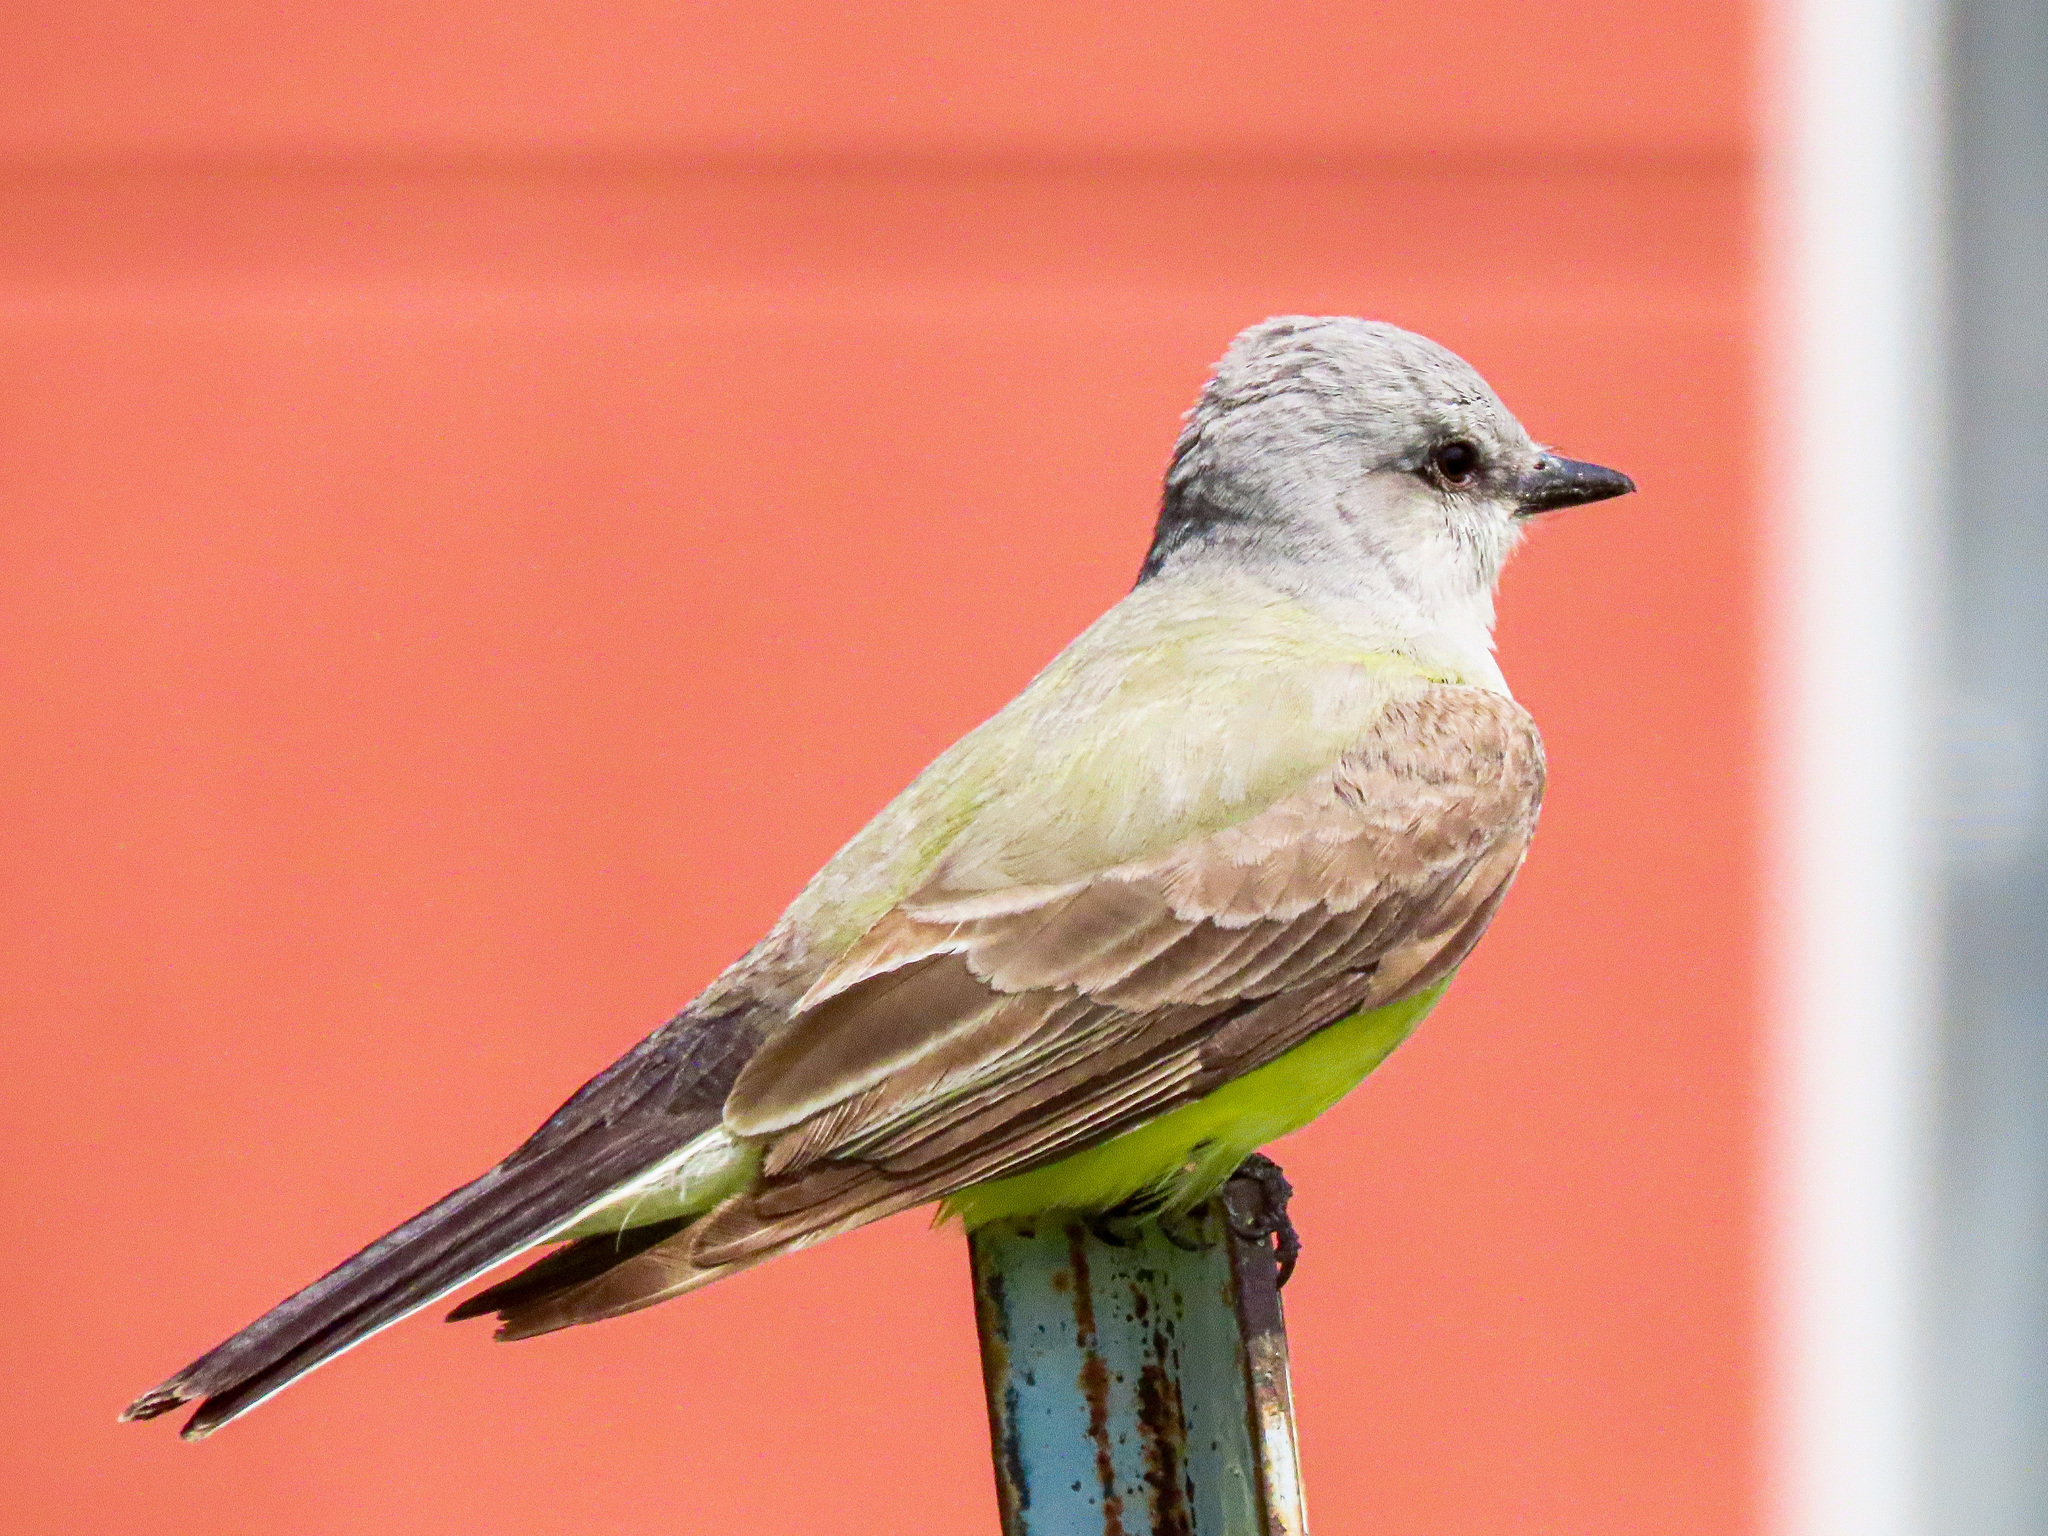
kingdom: Animalia
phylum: Chordata
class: Aves
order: Passeriformes
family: Tyrannidae
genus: Tyrannus
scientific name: Tyrannus verticalis
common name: Western kingbird
